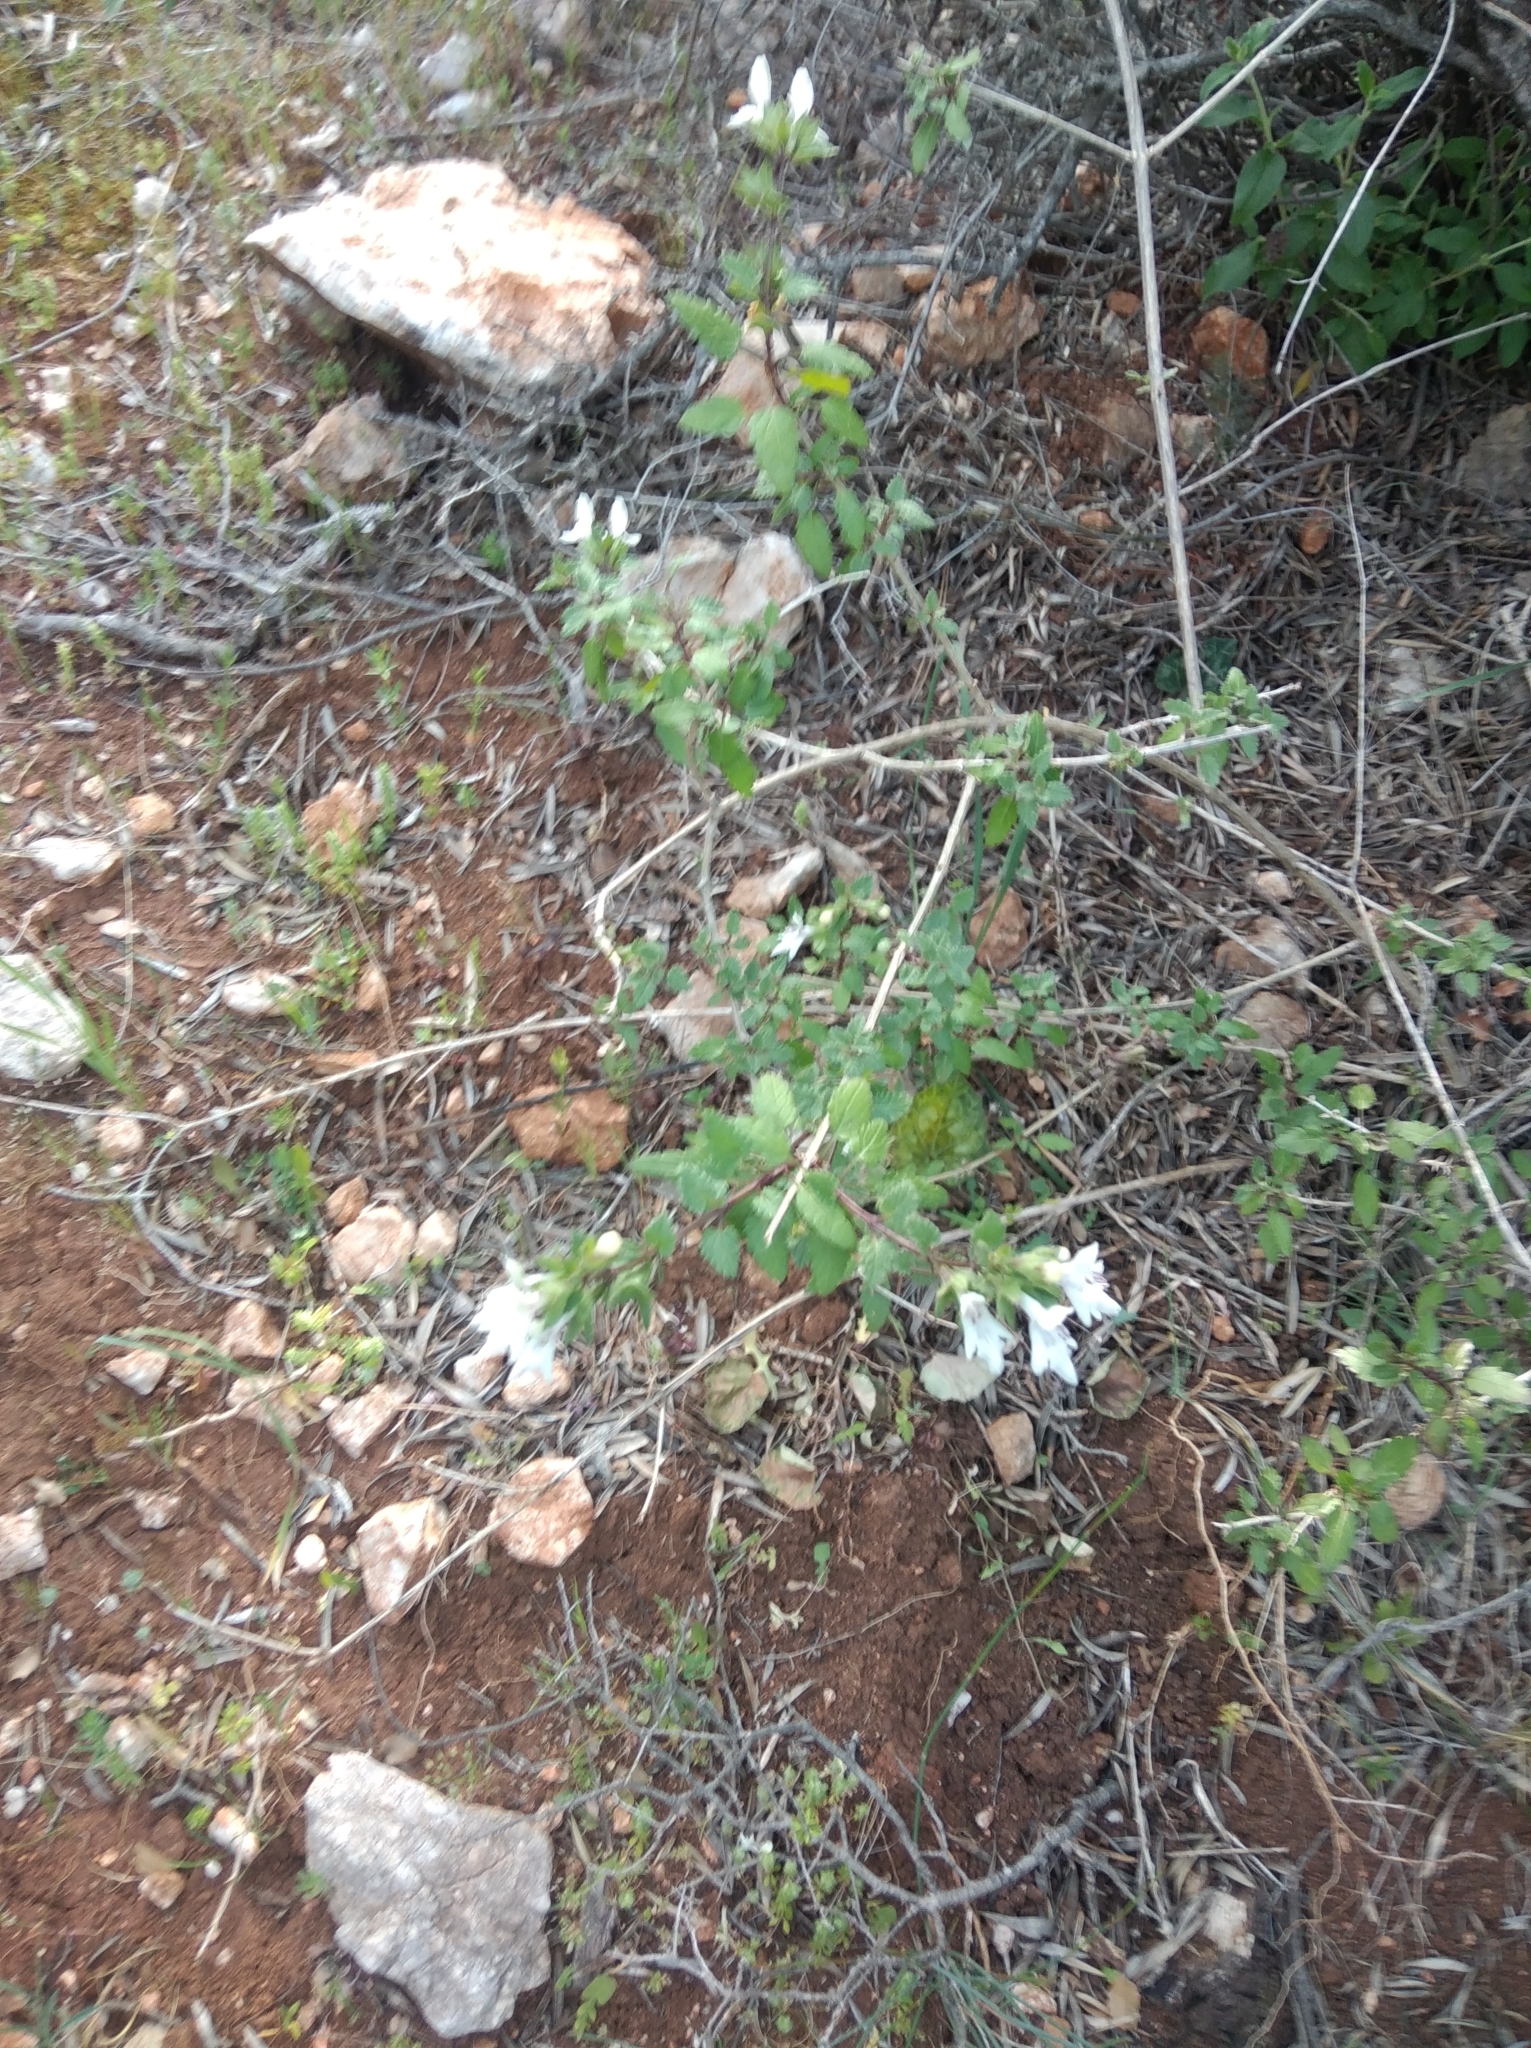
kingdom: Plantae
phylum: Tracheophyta
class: Magnoliopsida
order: Lamiales
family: Lamiaceae
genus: Prasium
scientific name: Prasium majus
